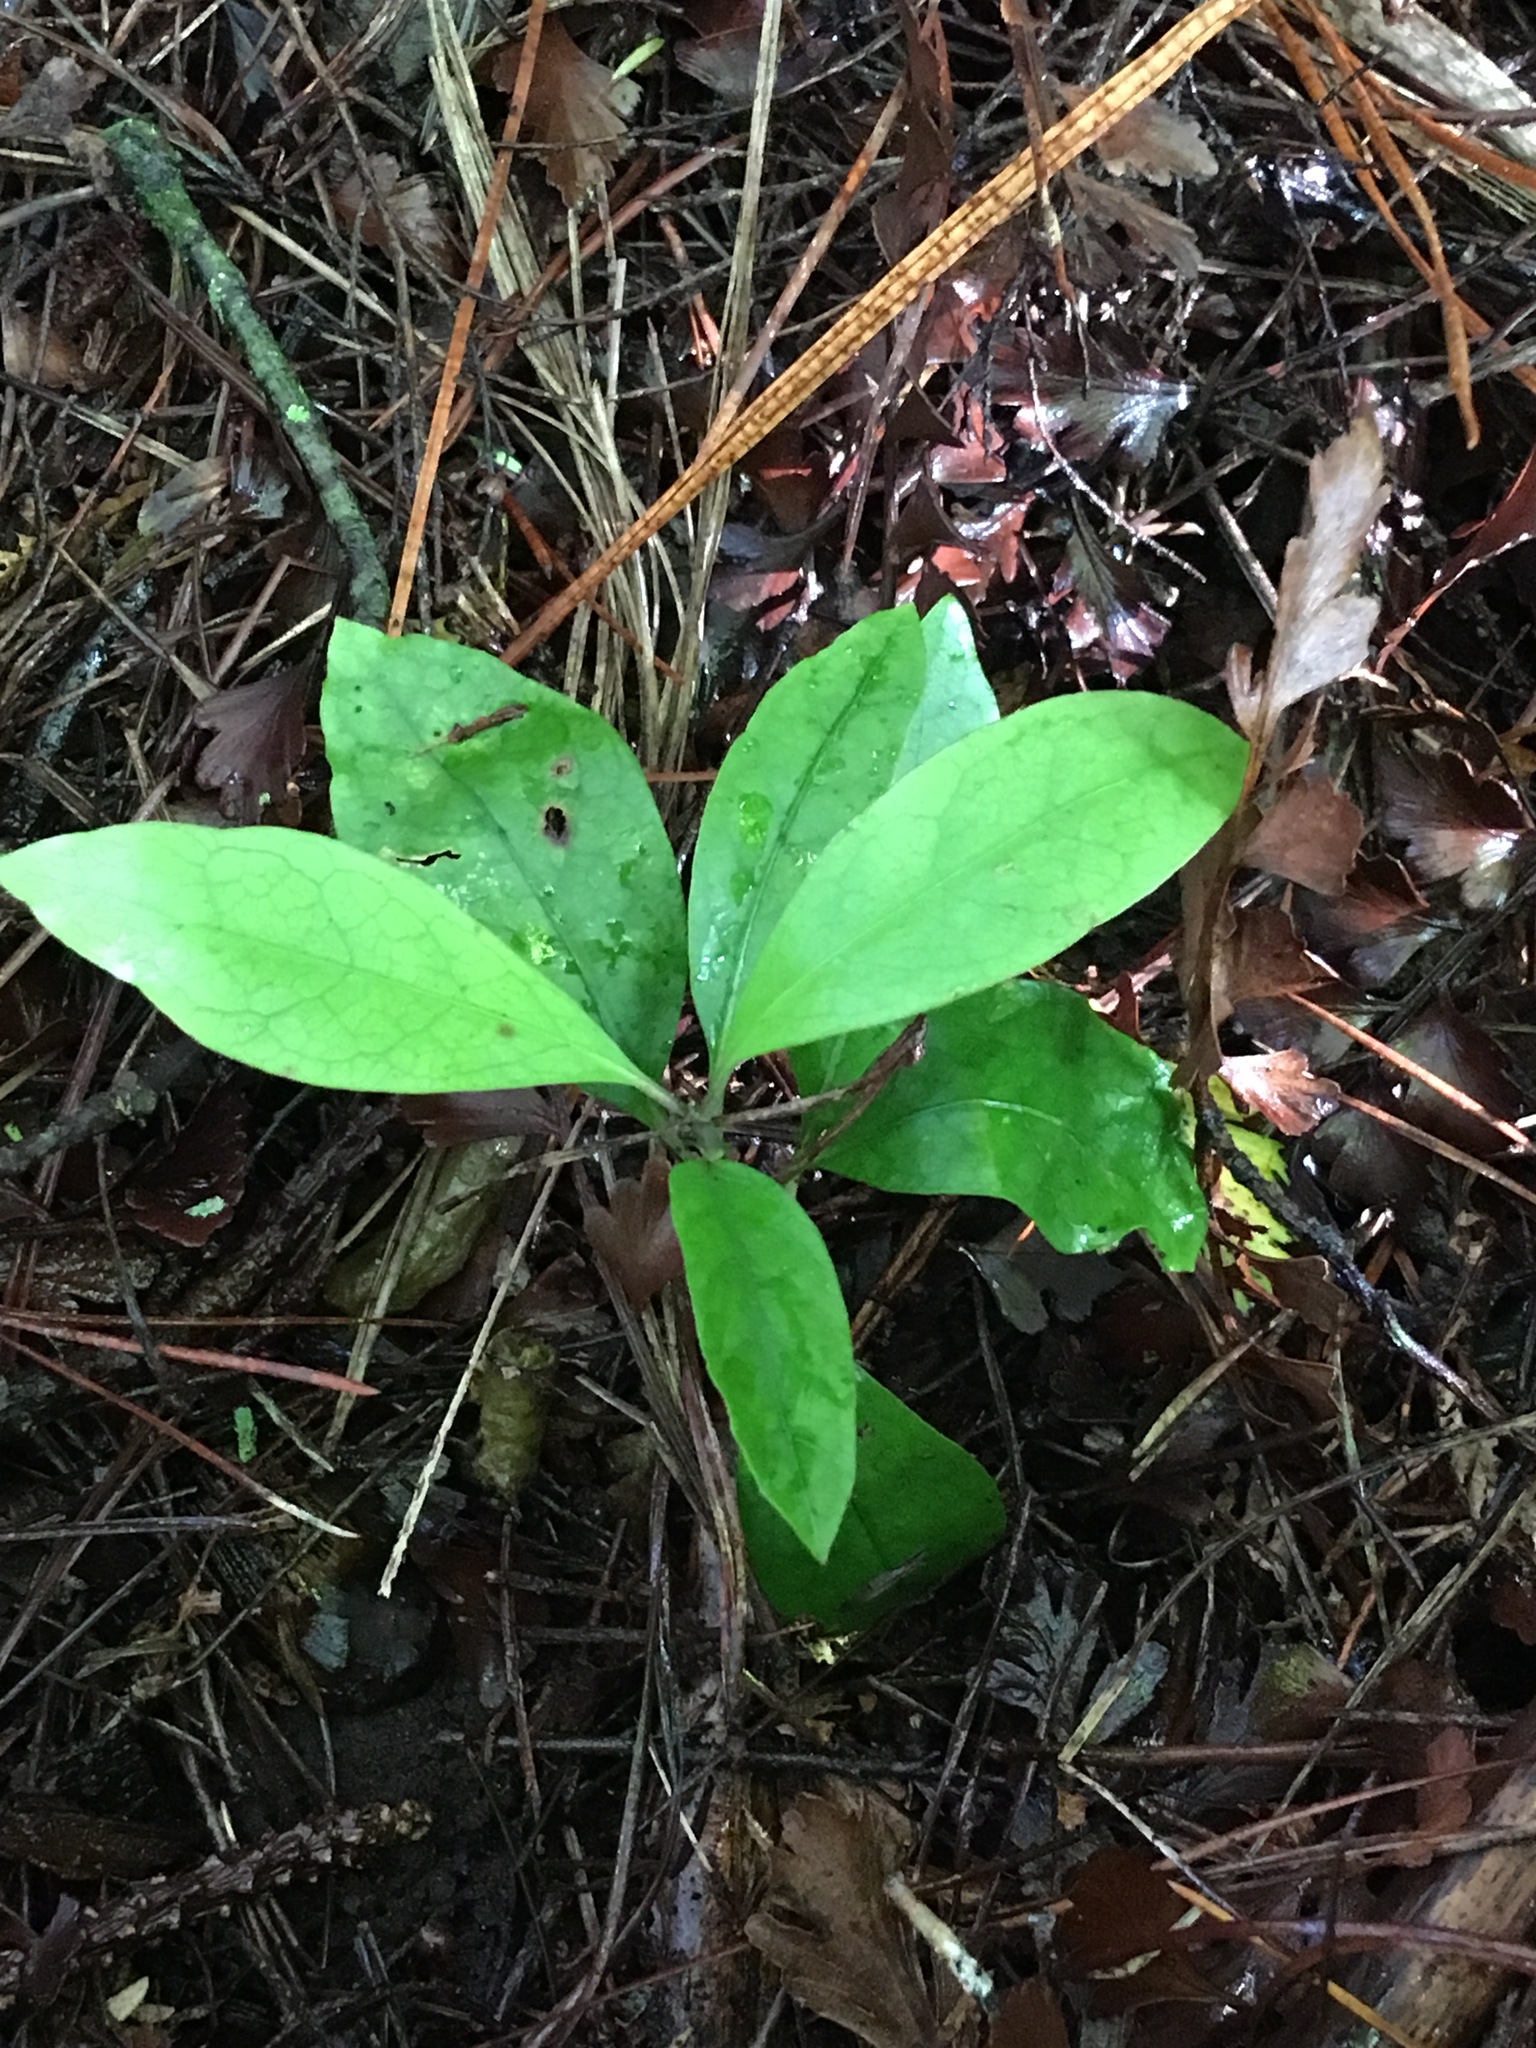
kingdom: Plantae
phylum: Tracheophyta
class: Magnoliopsida
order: Gentianales
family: Rubiaceae
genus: Coprosma
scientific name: Coprosma autumnalis
